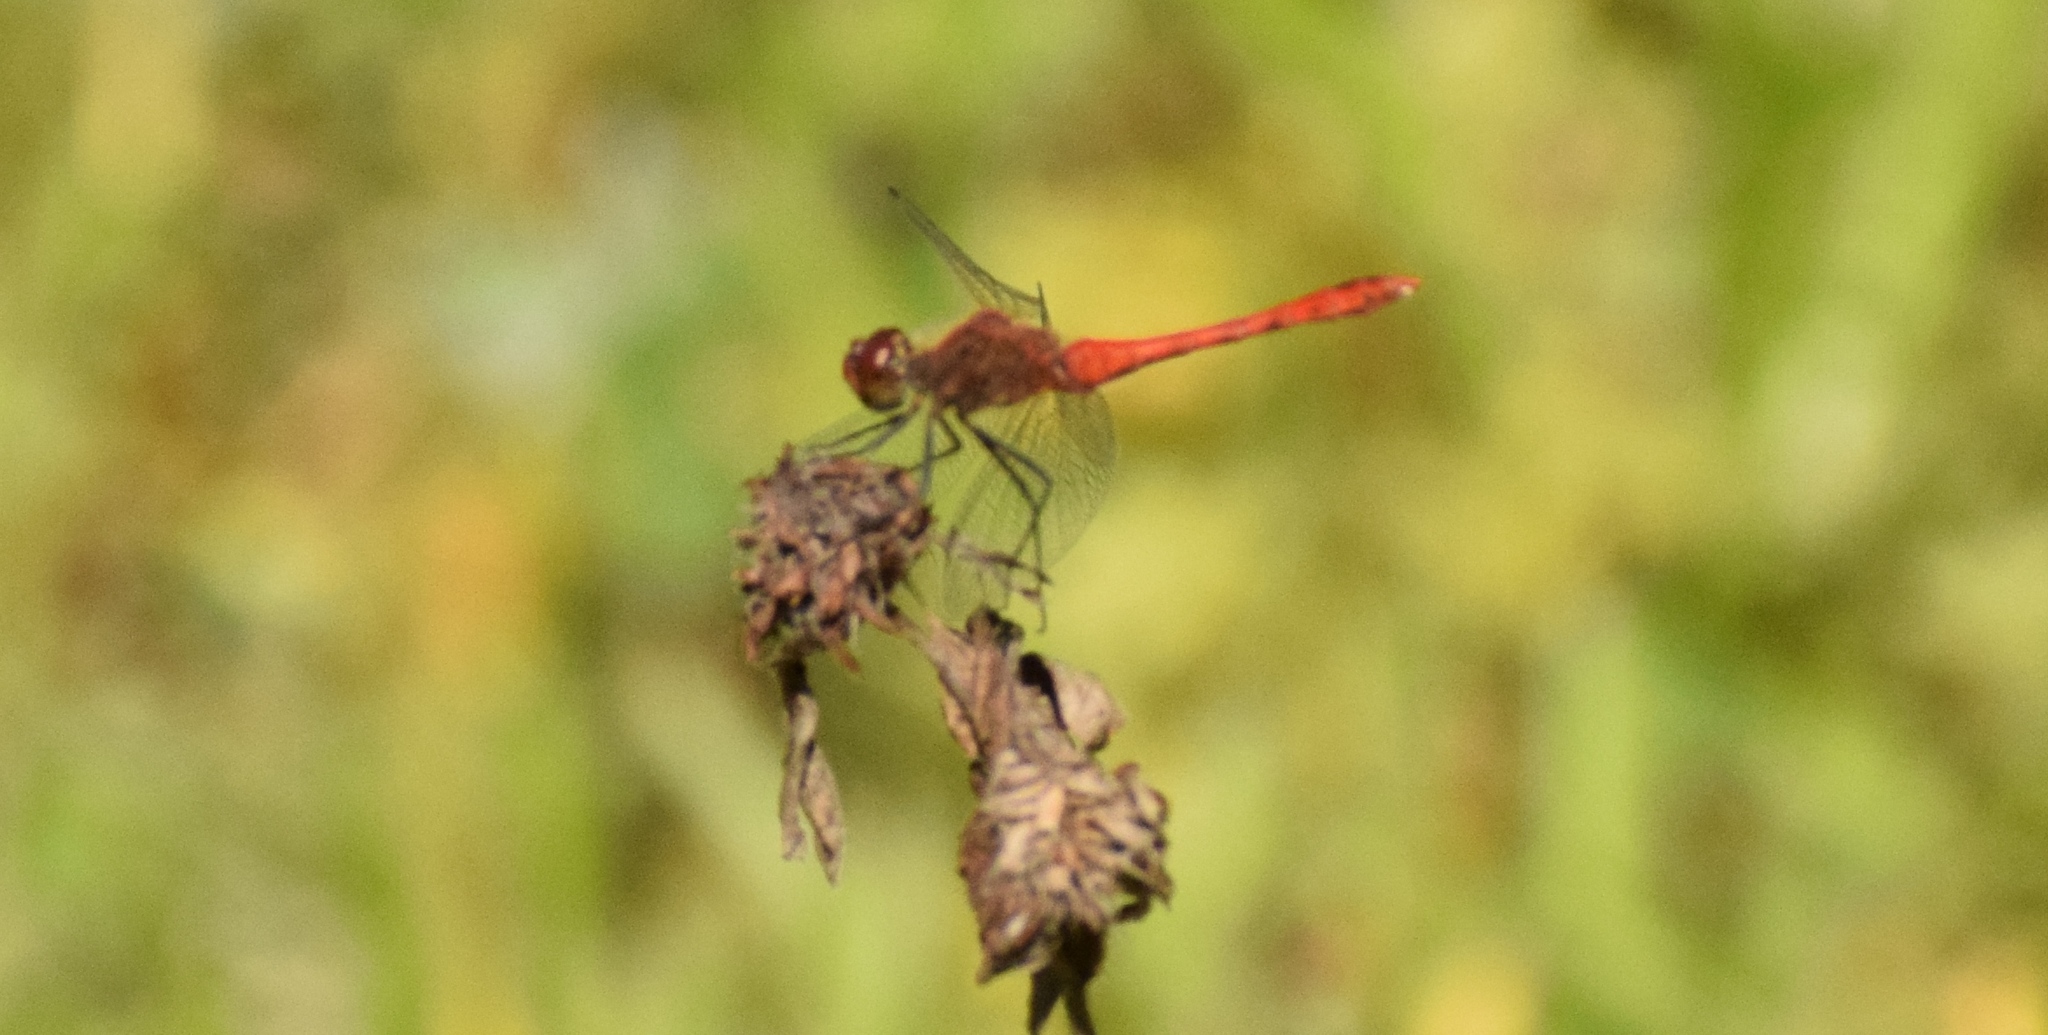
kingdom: Animalia
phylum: Arthropoda
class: Insecta
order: Odonata
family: Libellulidae
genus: Sympetrum
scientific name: Sympetrum sanguineum
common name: Ruddy darter
